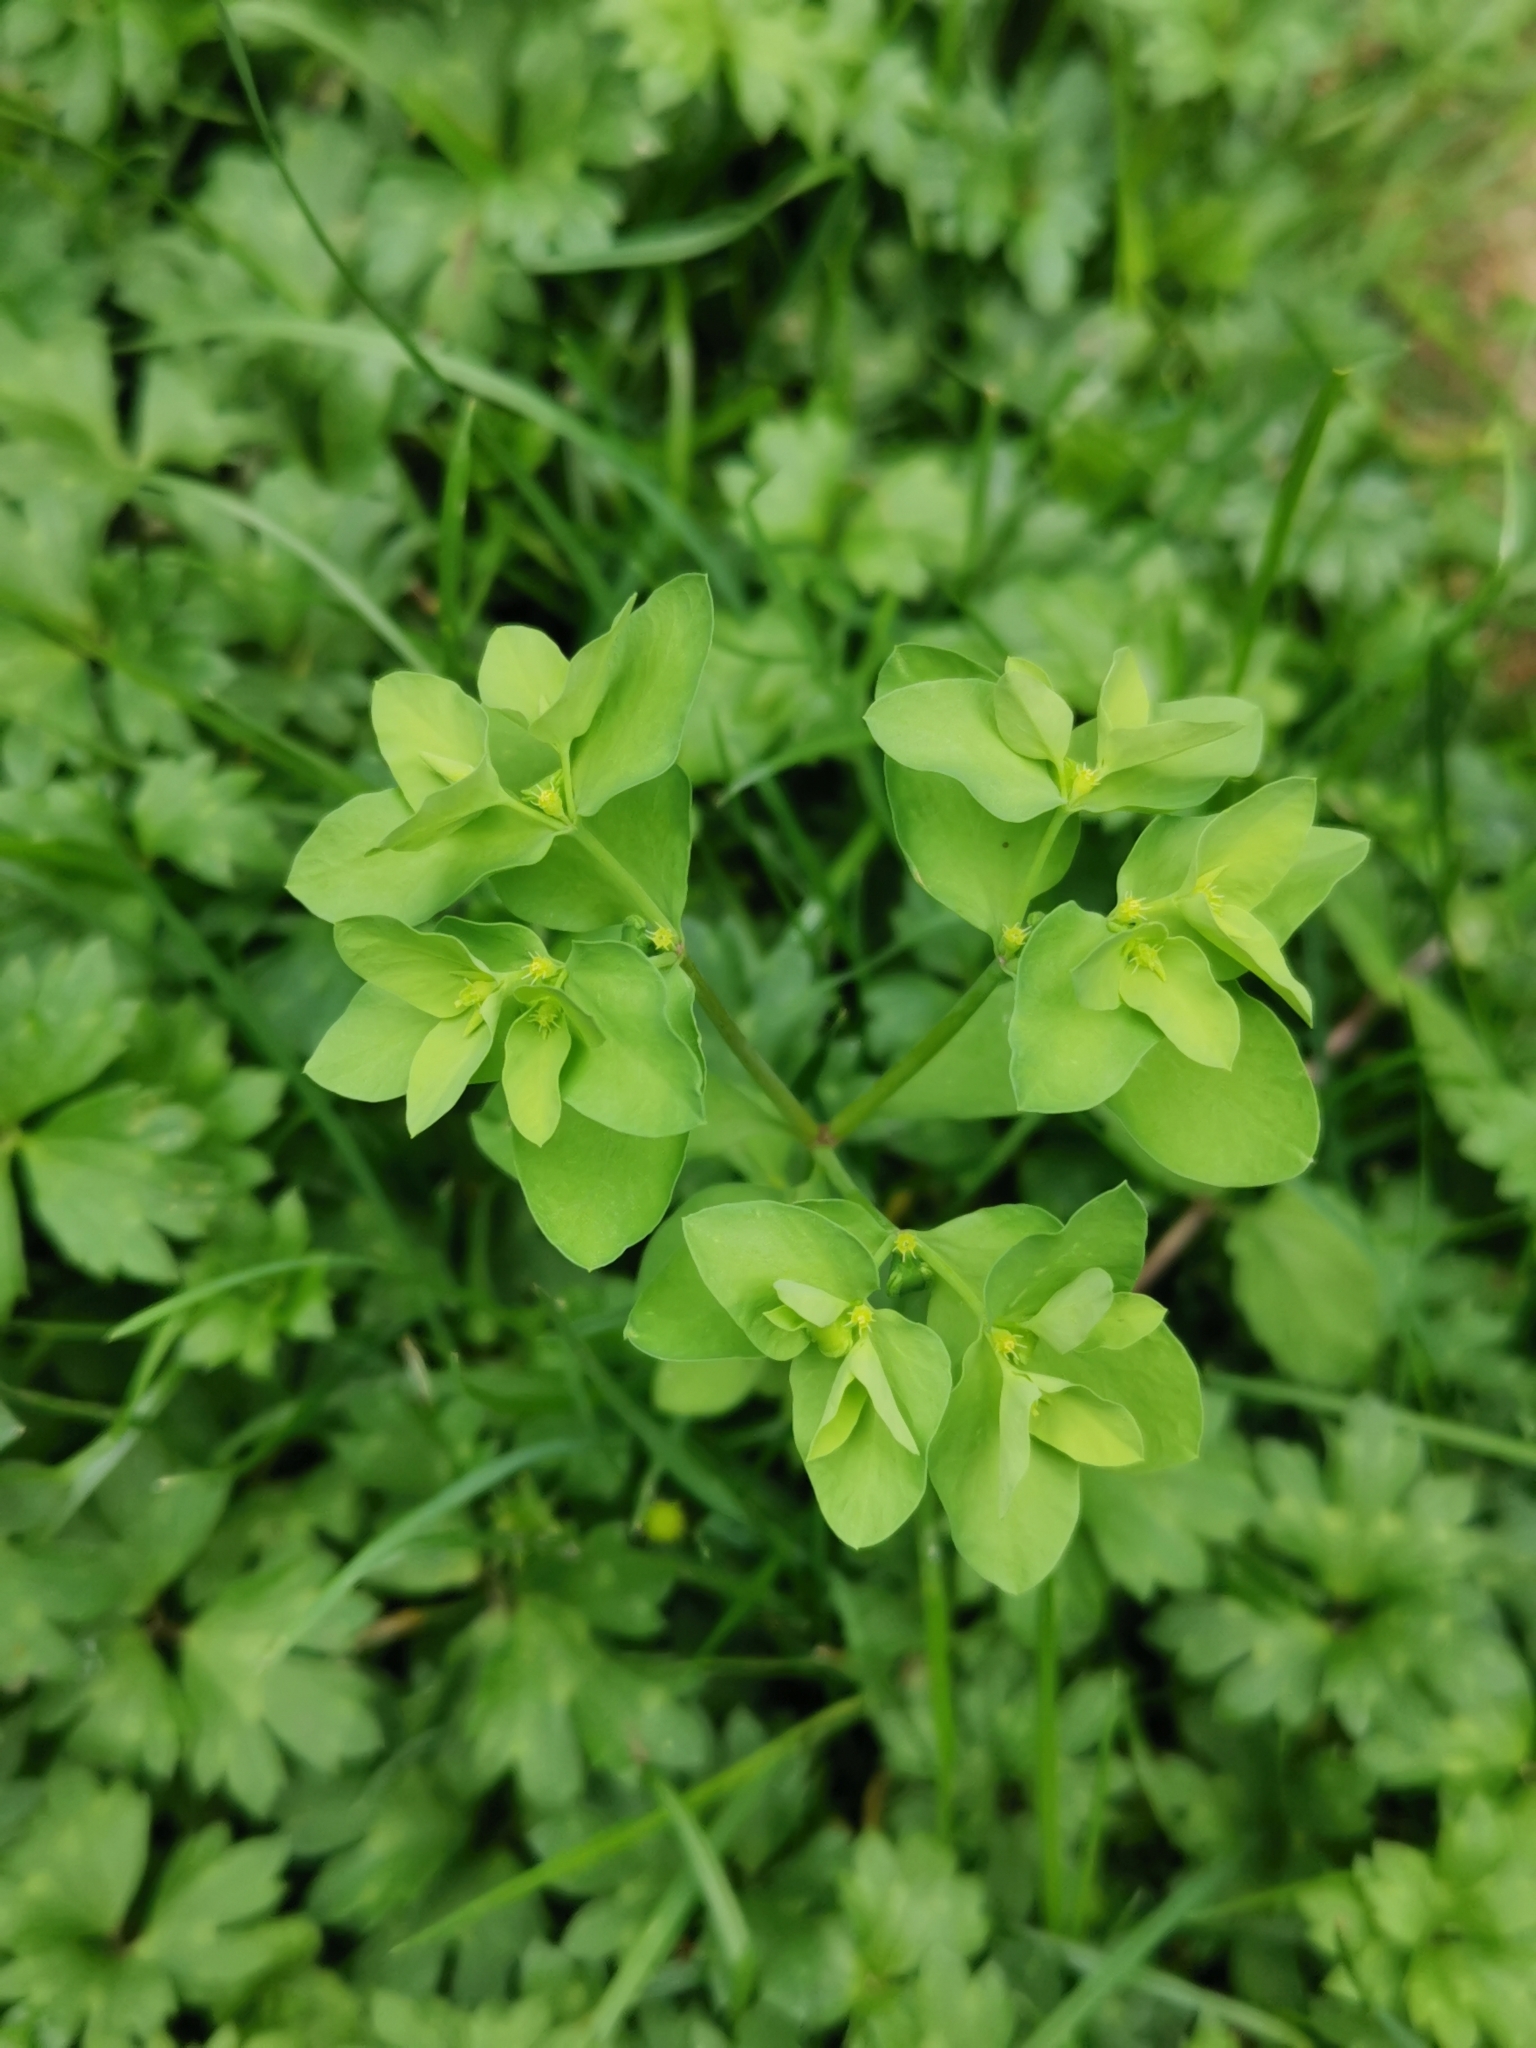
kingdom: Plantae
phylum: Tracheophyta
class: Magnoliopsida
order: Malpighiales
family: Euphorbiaceae
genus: Euphorbia
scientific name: Euphorbia peplus
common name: Petty spurge
